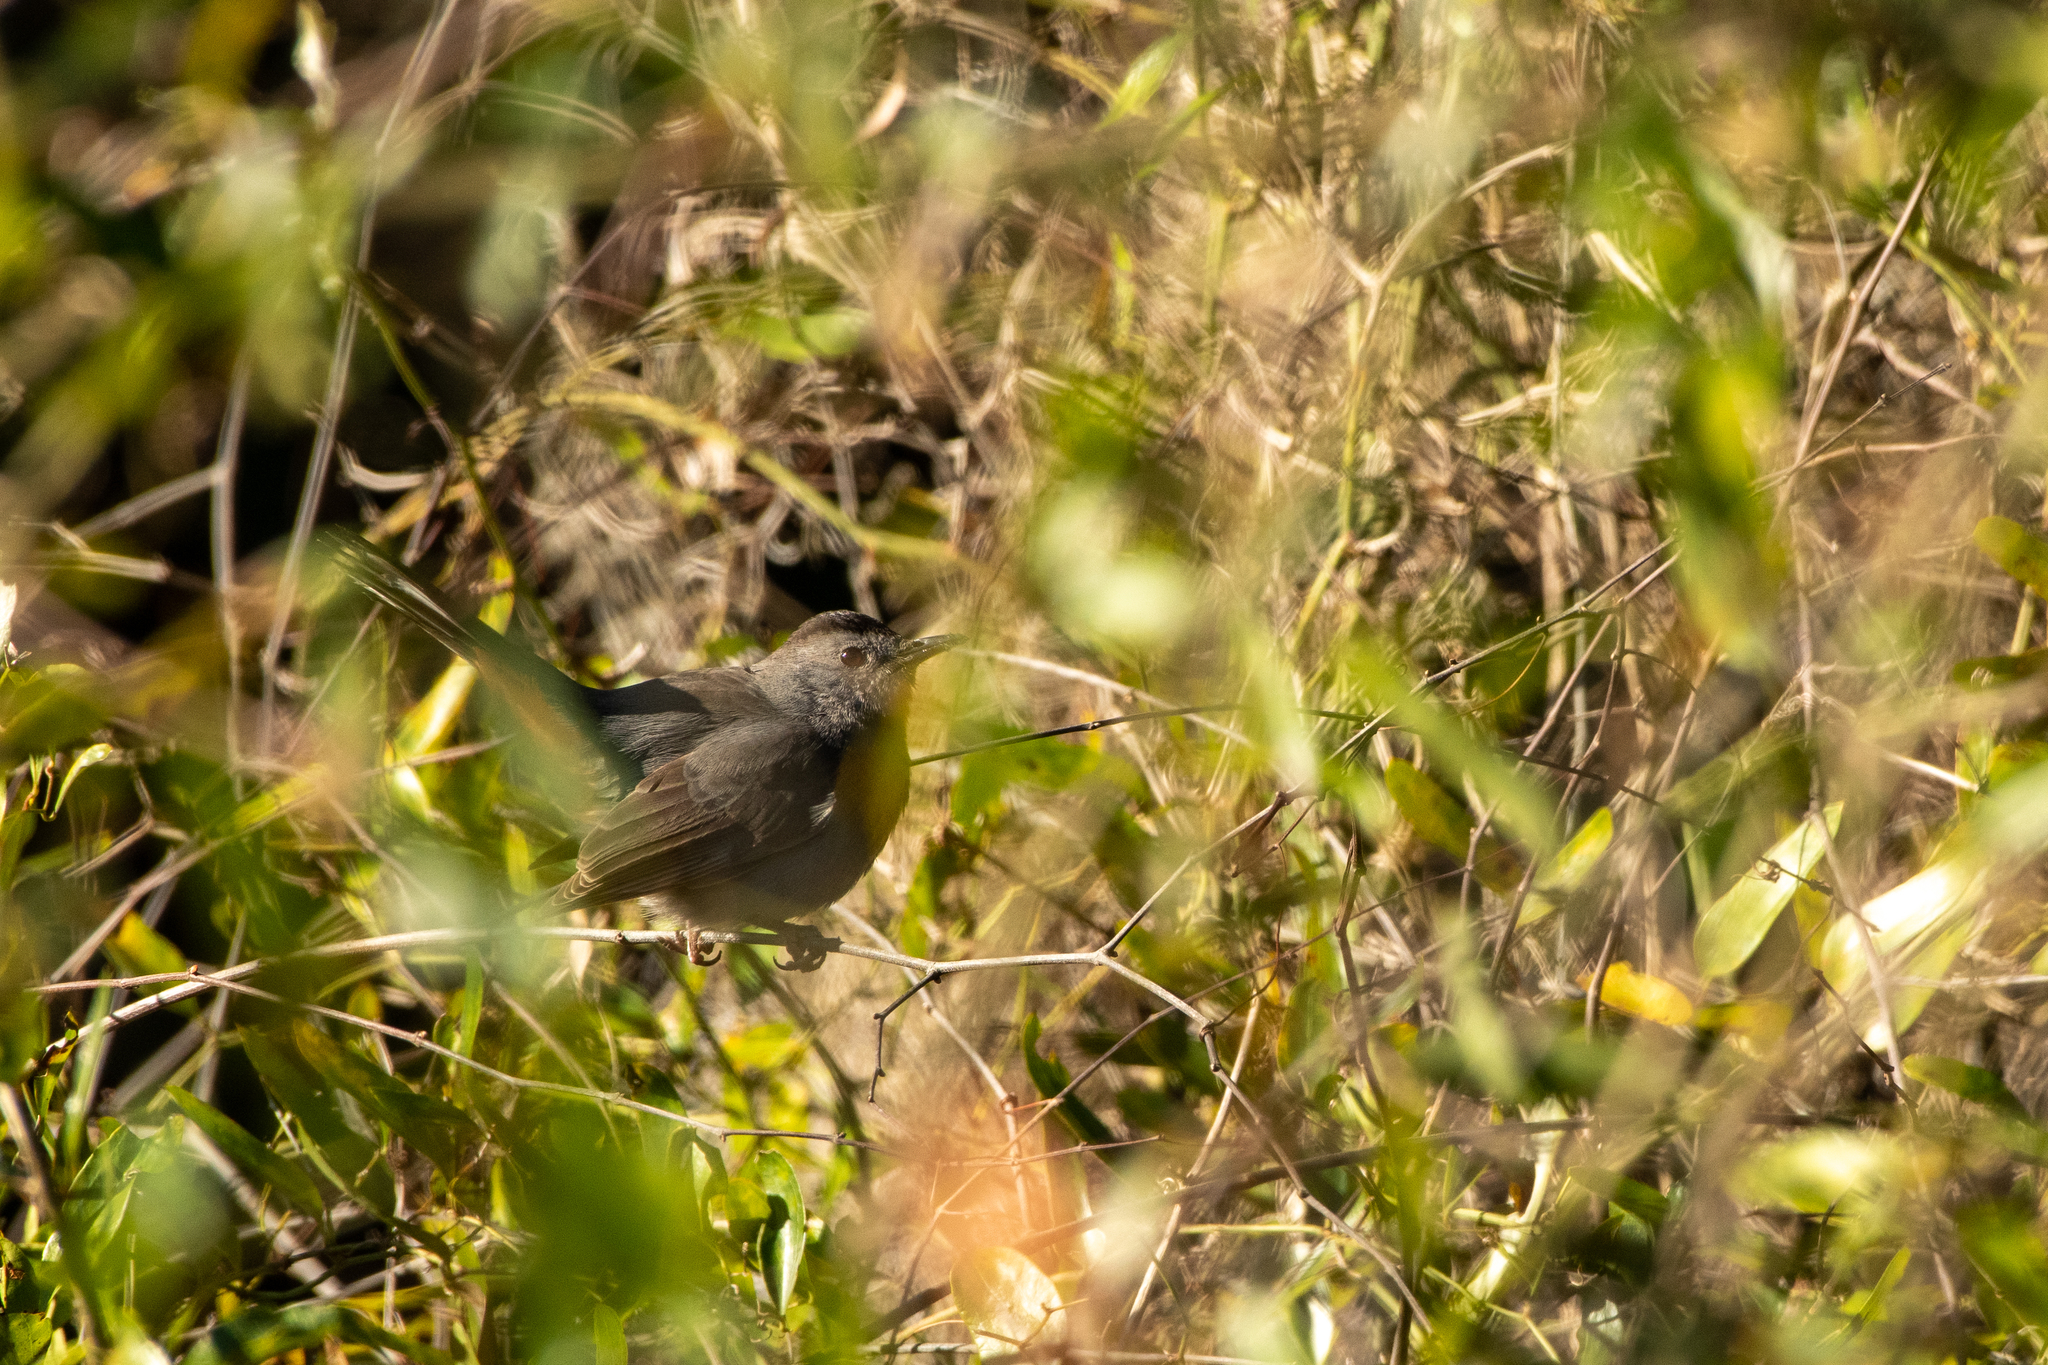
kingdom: Animalia
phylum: Chordata
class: Aves
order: Passeriformes
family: Mimidae
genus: Dumetella
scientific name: Dumetella carolinensis
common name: Gray catbird
